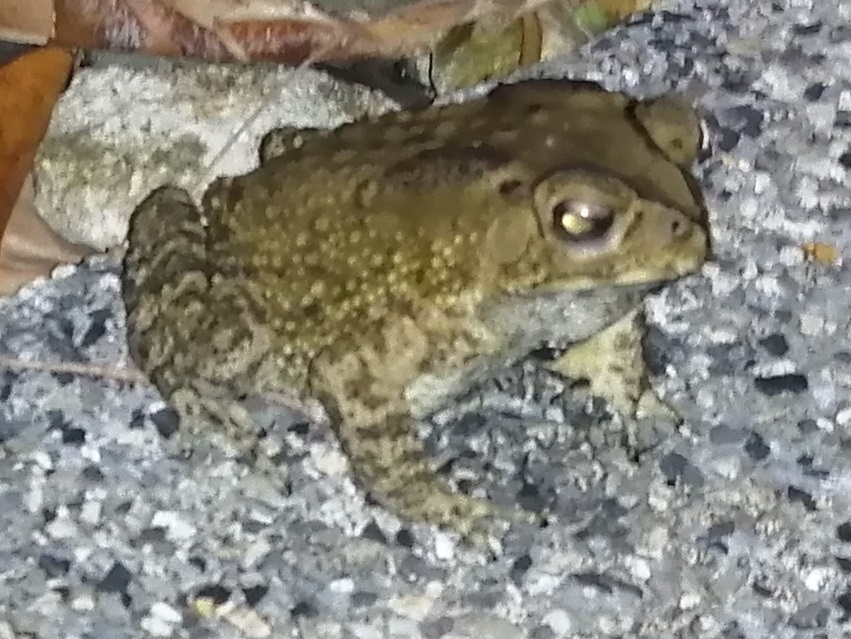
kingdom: Animalia
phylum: Chordata
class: Amphibia
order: Anura
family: Bufonidae
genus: Duttaphrynus
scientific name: Duttaphrynus melanostictus
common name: Common sunda toad
